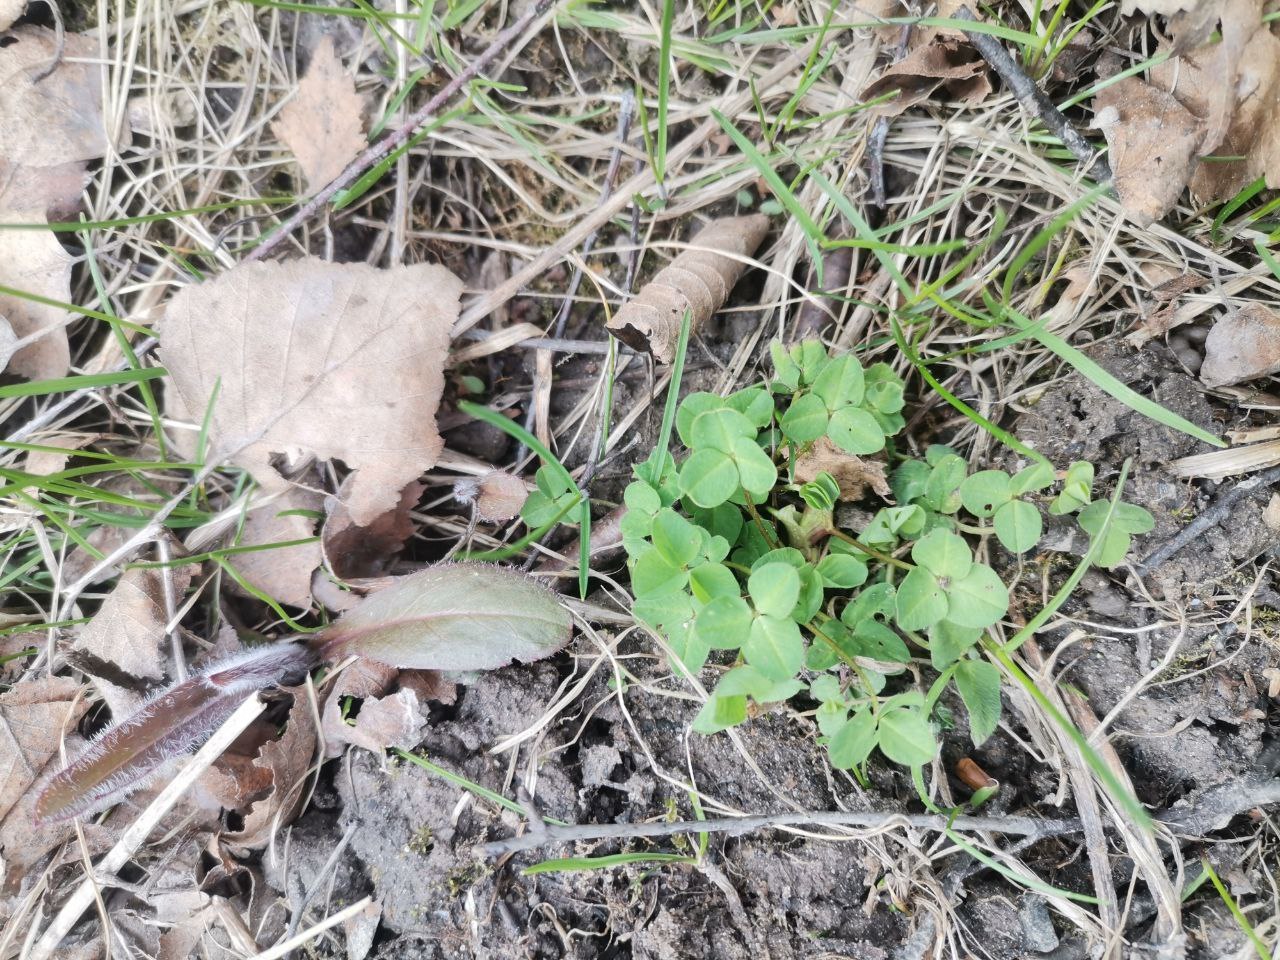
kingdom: Plantae
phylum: Tracheophyta
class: Magnoliopsida
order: Fabales
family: Fabaceae
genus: Trifolium
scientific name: Trifolium repens
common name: White clover
